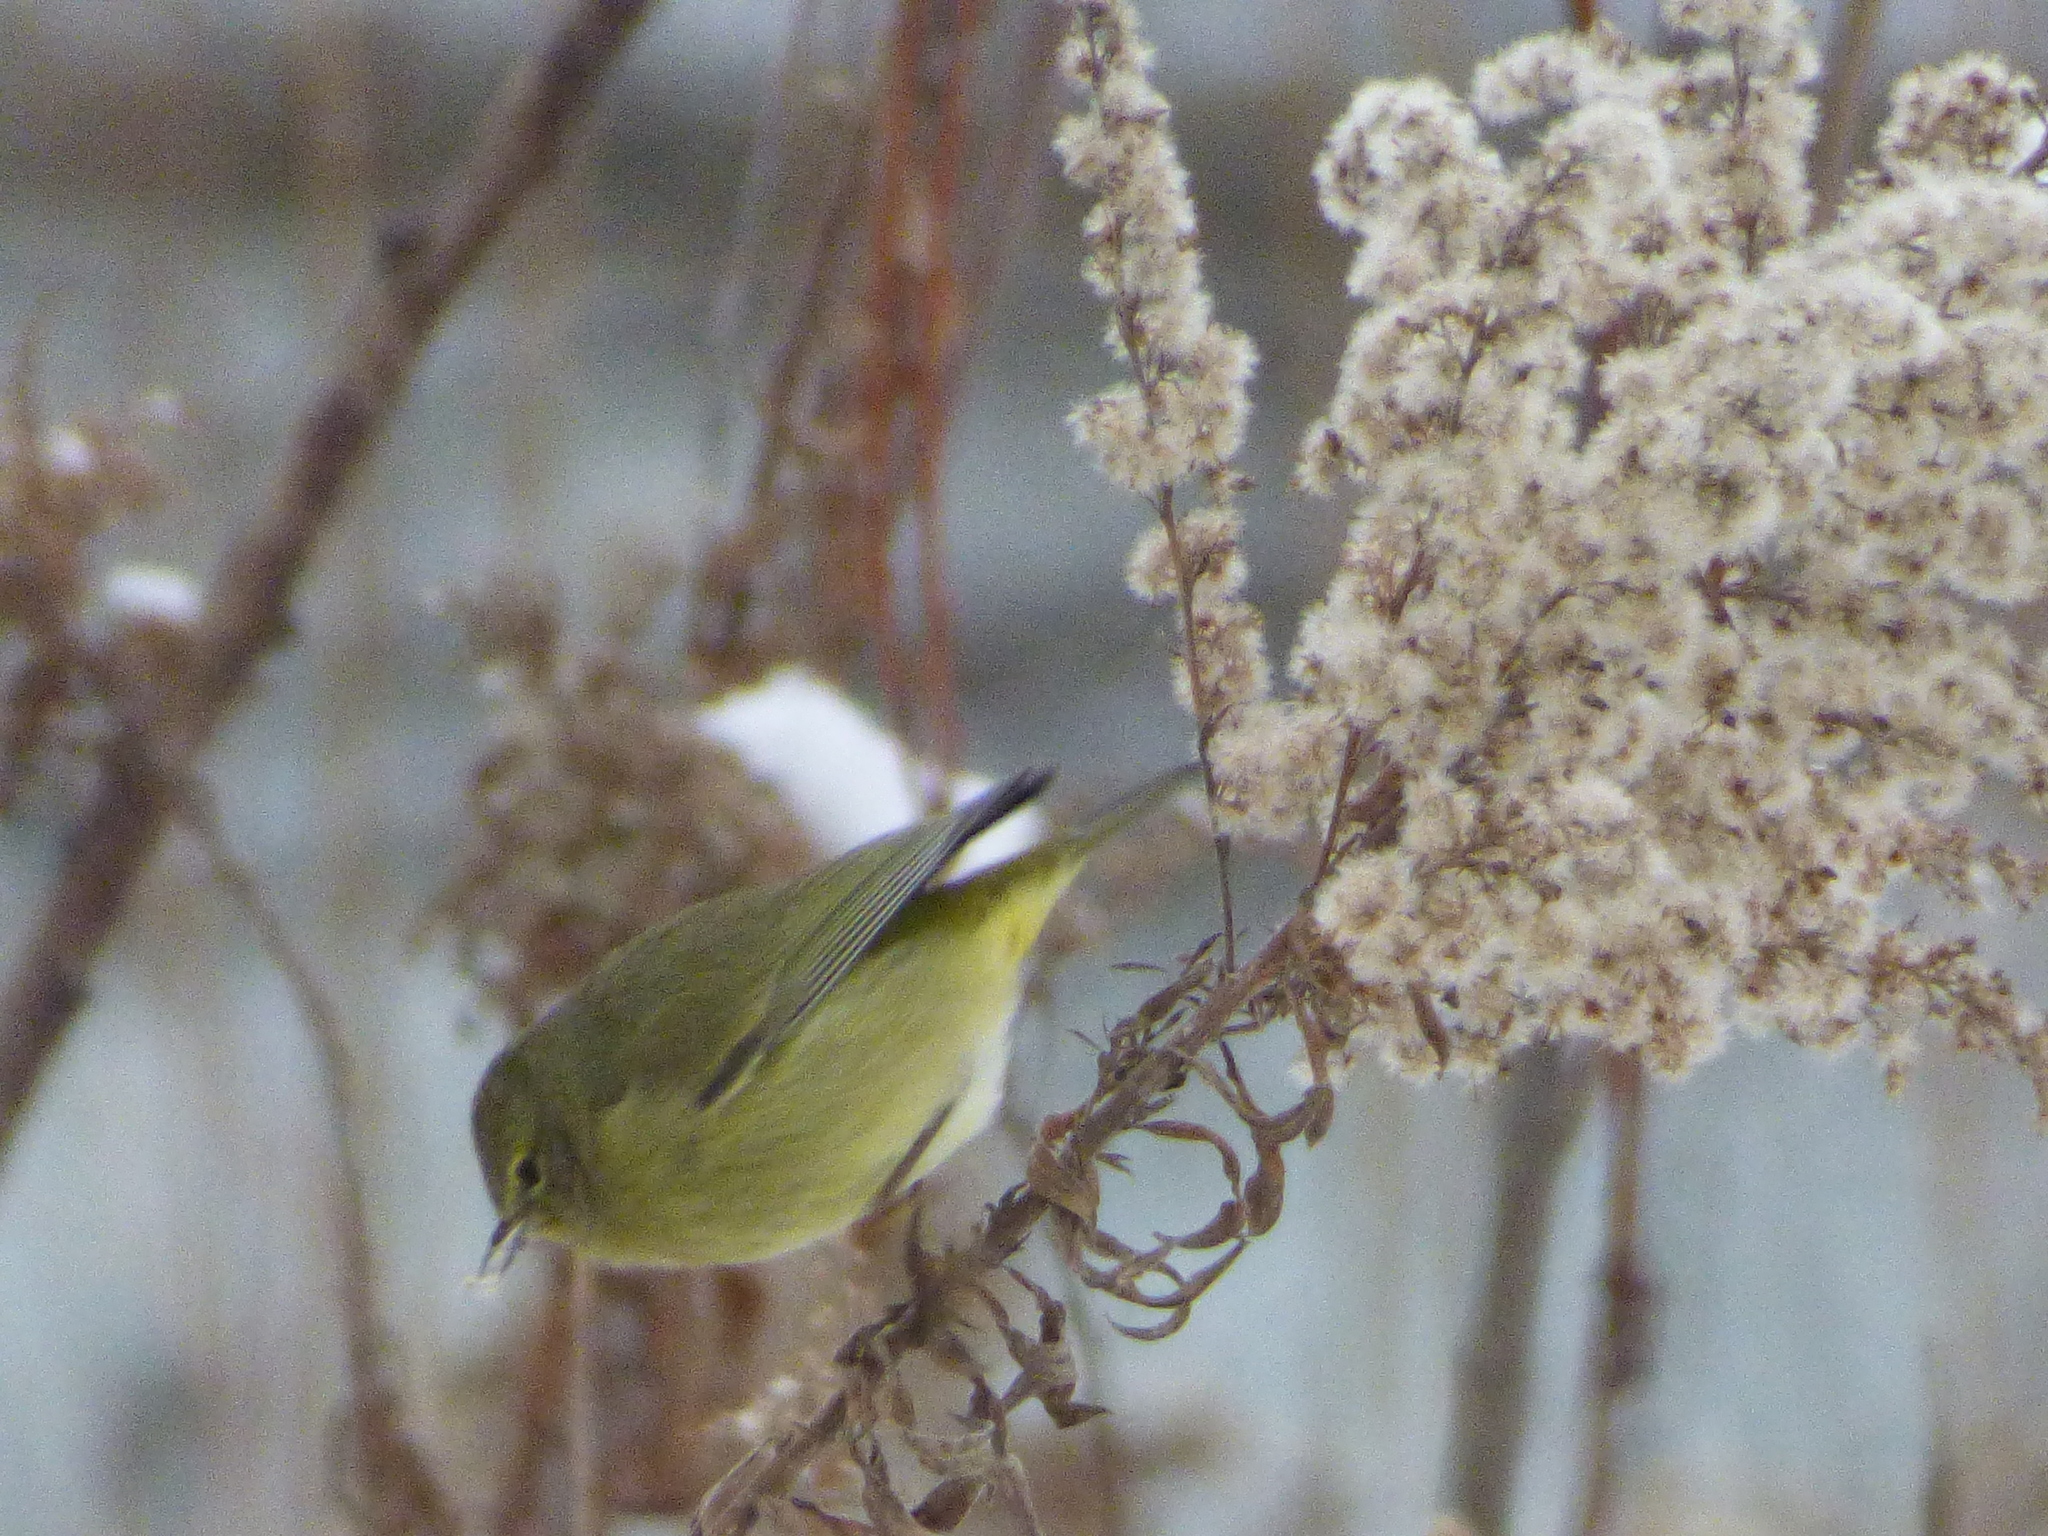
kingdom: Animalia
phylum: Chordata
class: Aves
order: Passeriformes
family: Parulidae
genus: Leiothlypis
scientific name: Leiothlypis celata
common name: Orange-crowned warbler
